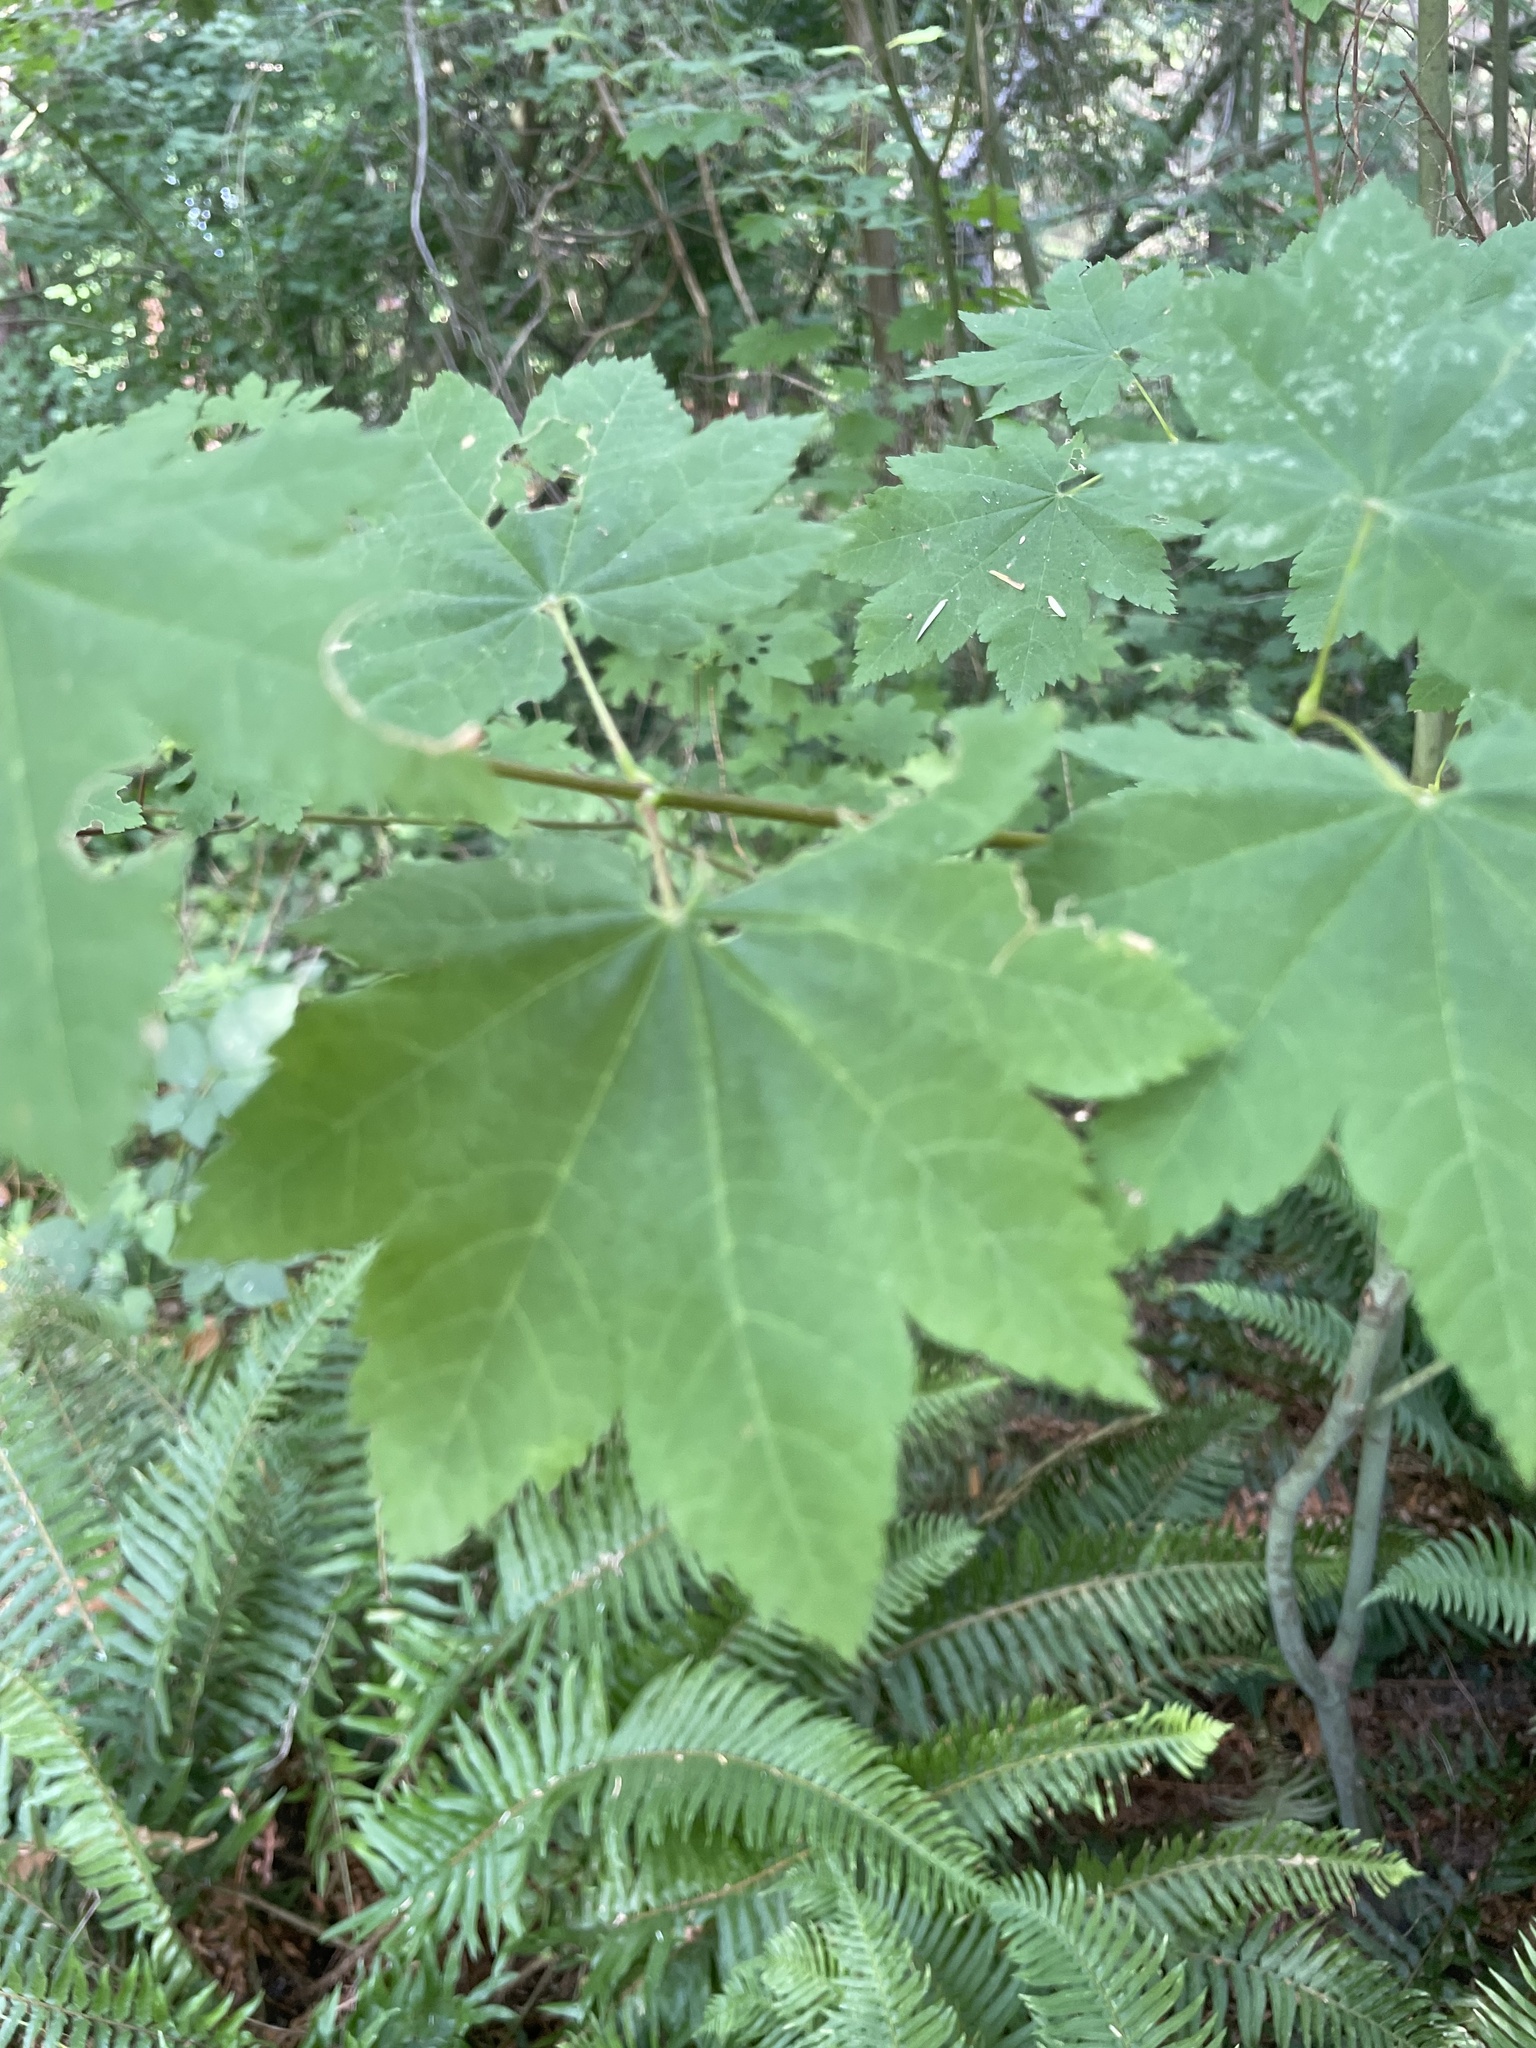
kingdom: Plantae
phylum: Tracheophyta
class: Magnoliopsida
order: Sapindales
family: Sapindaceae
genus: Acer
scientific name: Acer circinatum
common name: Vine maple
